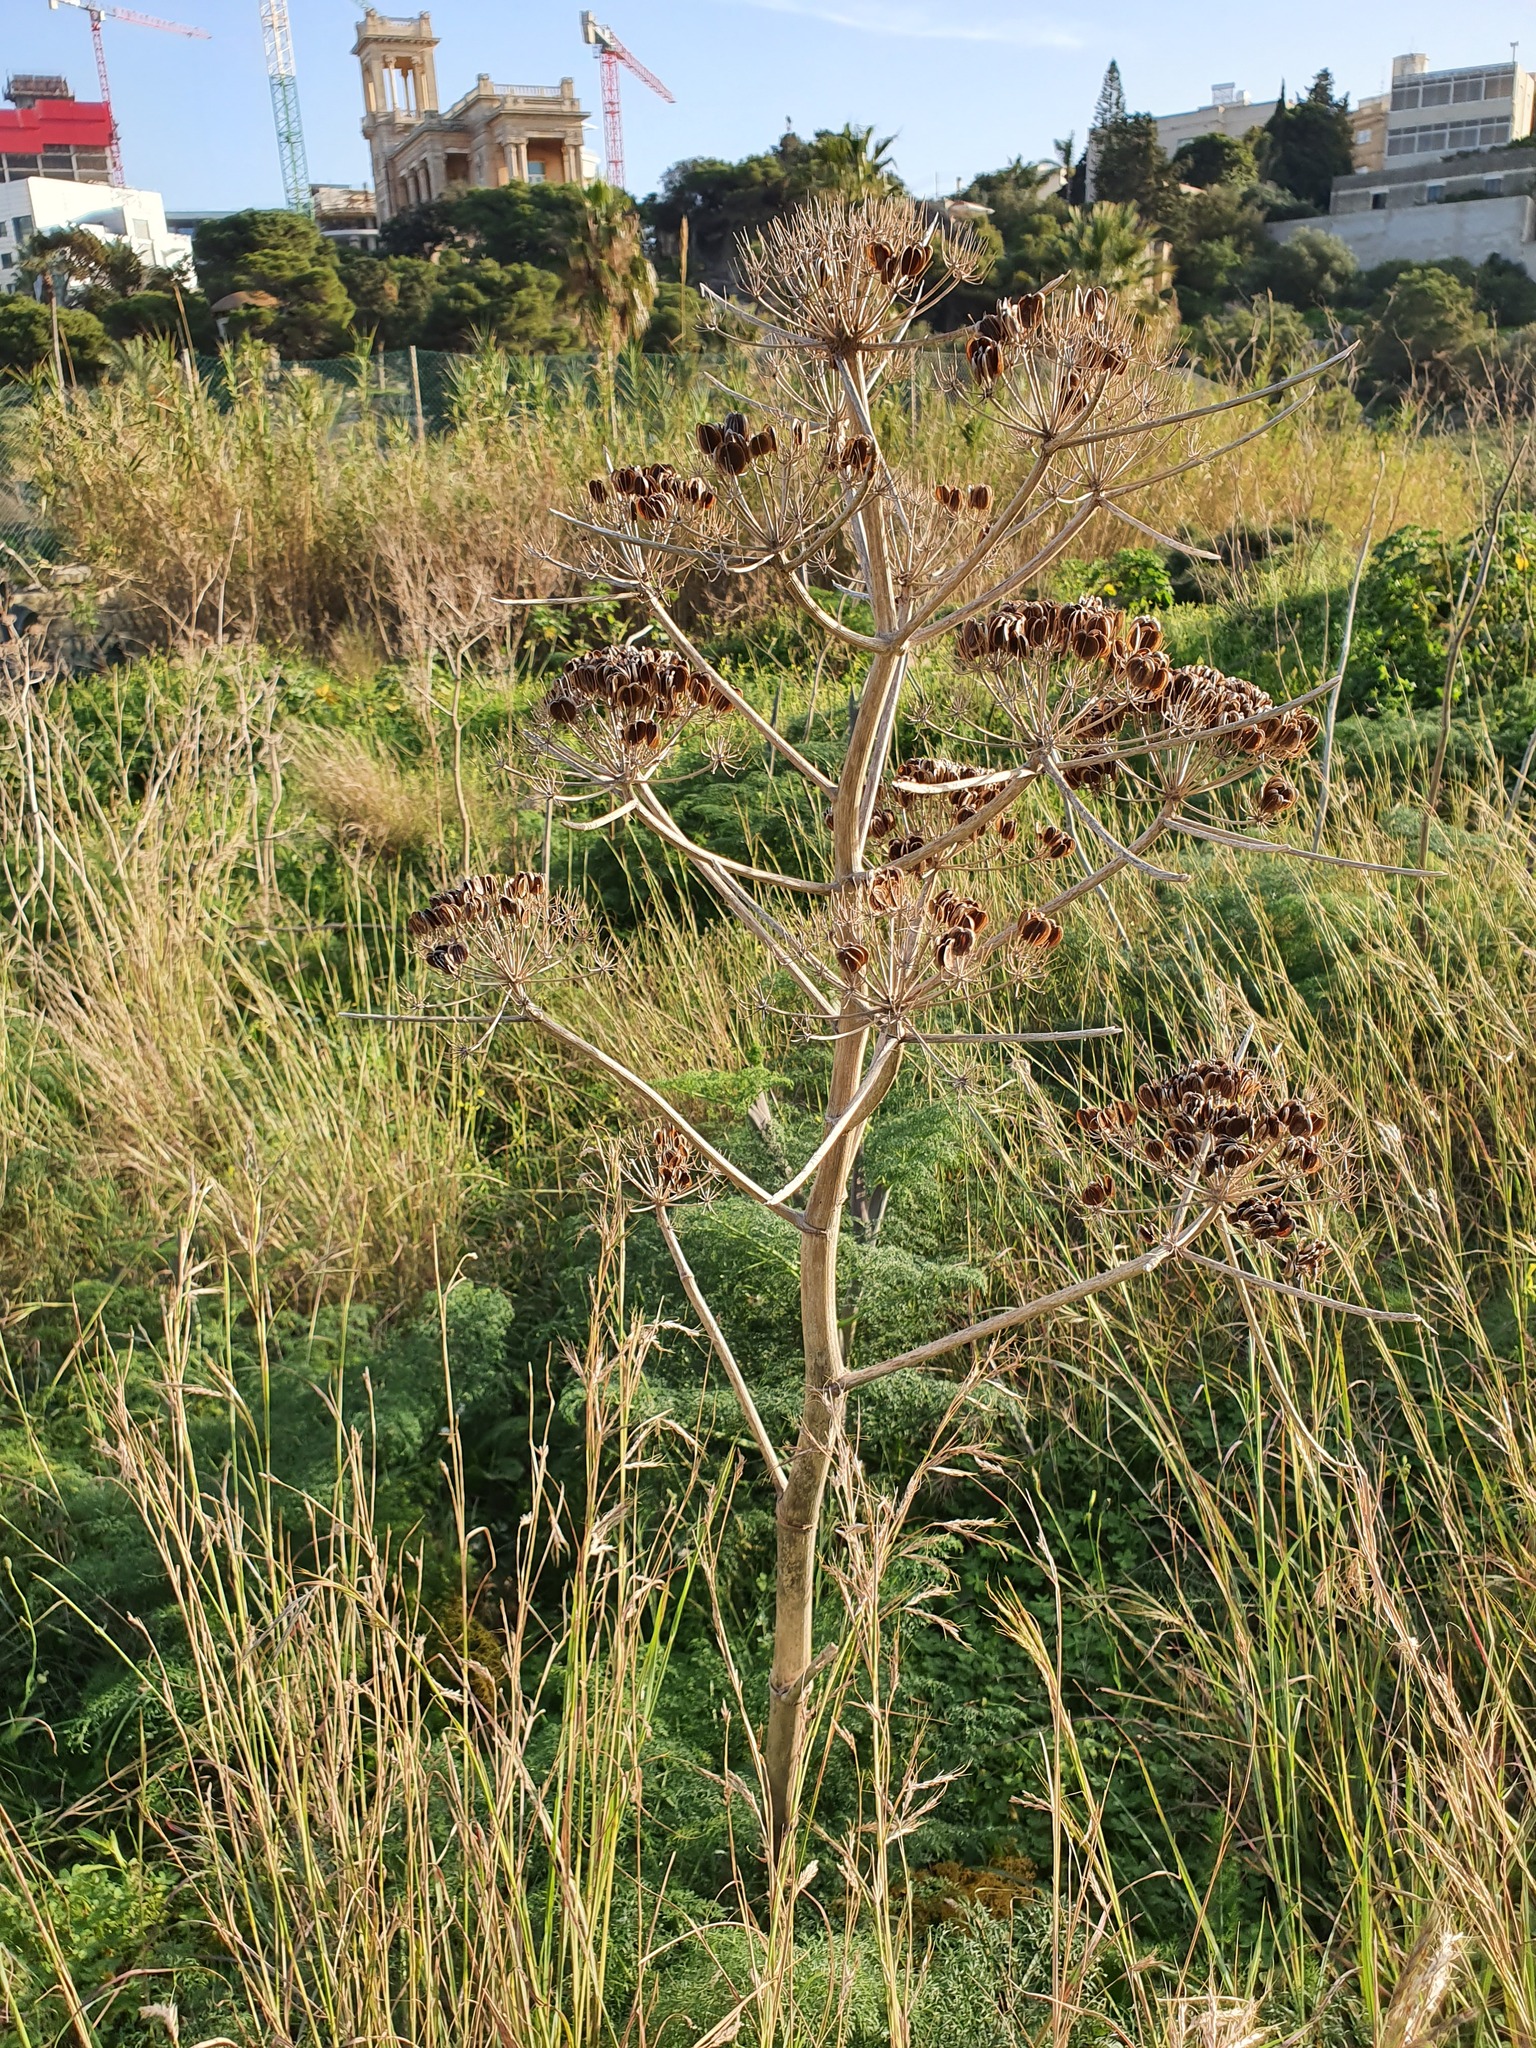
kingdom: Plantae
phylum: Tracheophyta
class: Magnoliopsida
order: Apiales
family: Apiaceae
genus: Ferula
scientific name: Ferula melitensis
